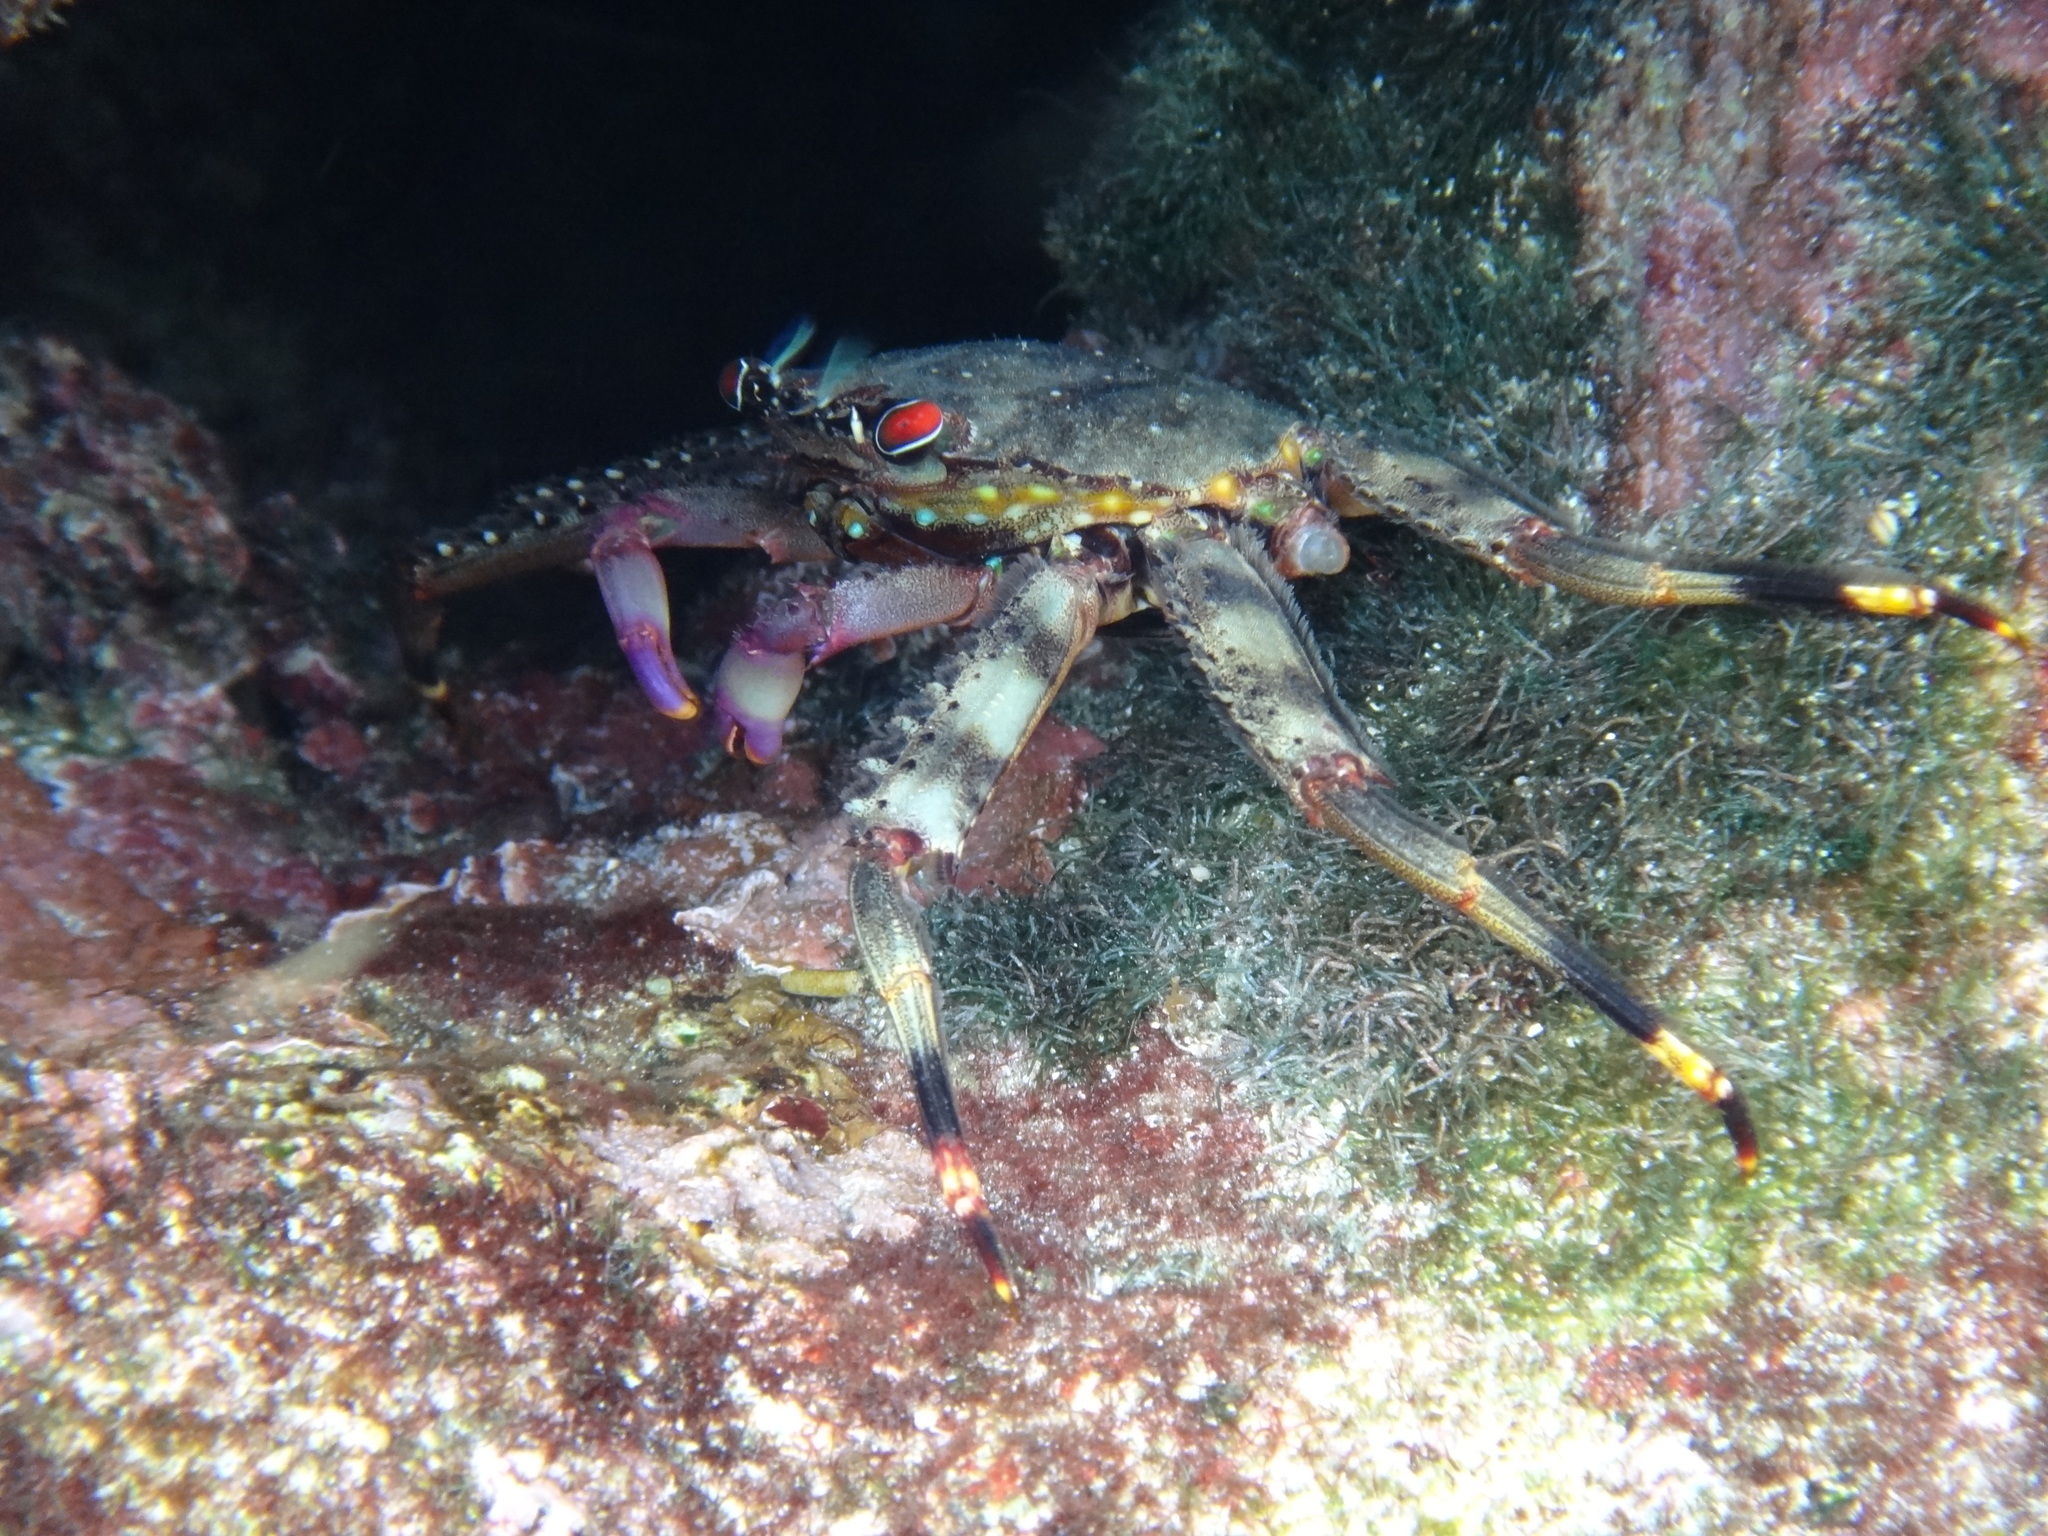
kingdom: Animalia
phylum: Arthropoda
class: Malacostraca
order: Decapoda
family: Percnidae
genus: Percnon
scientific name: Percnon guinotae
